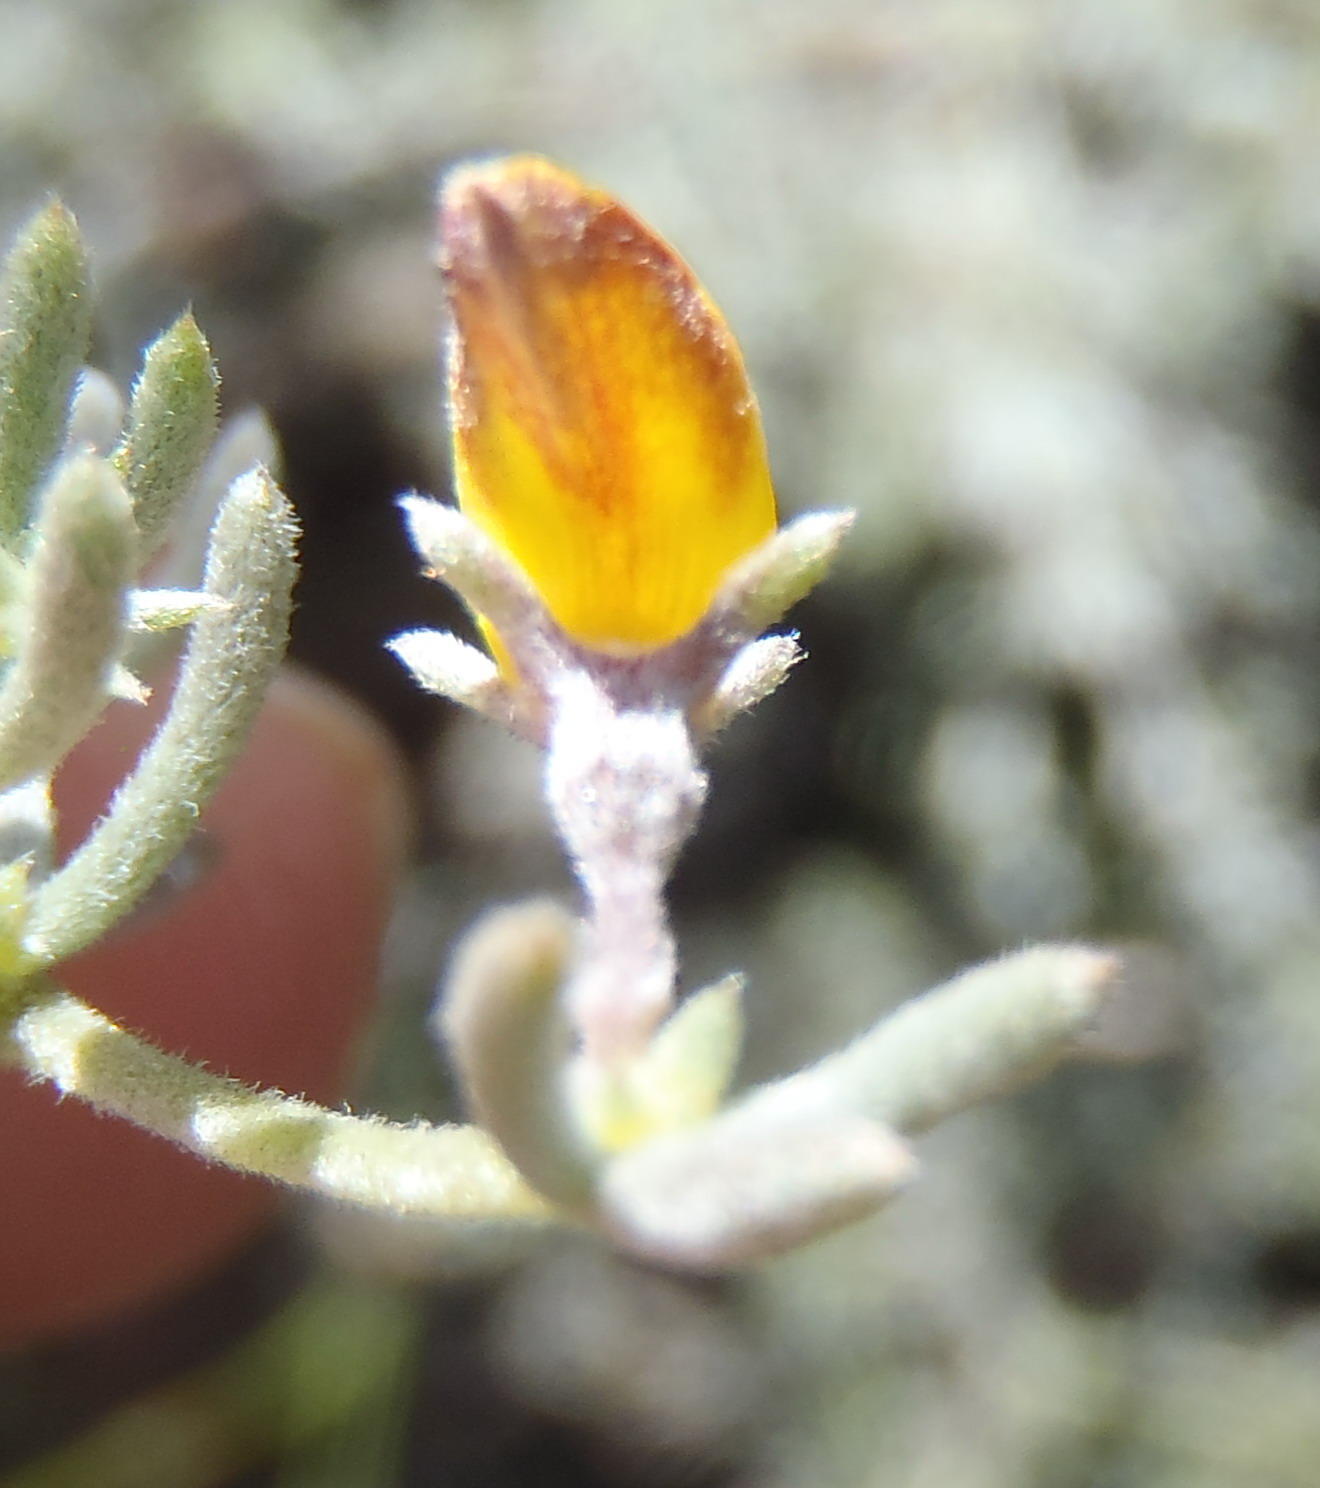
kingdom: Plantae
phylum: Tracheophyta
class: Magnoliopsida
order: Fabales
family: Fabaceae
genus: Aspalathus
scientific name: Aspalathus digitifolia
